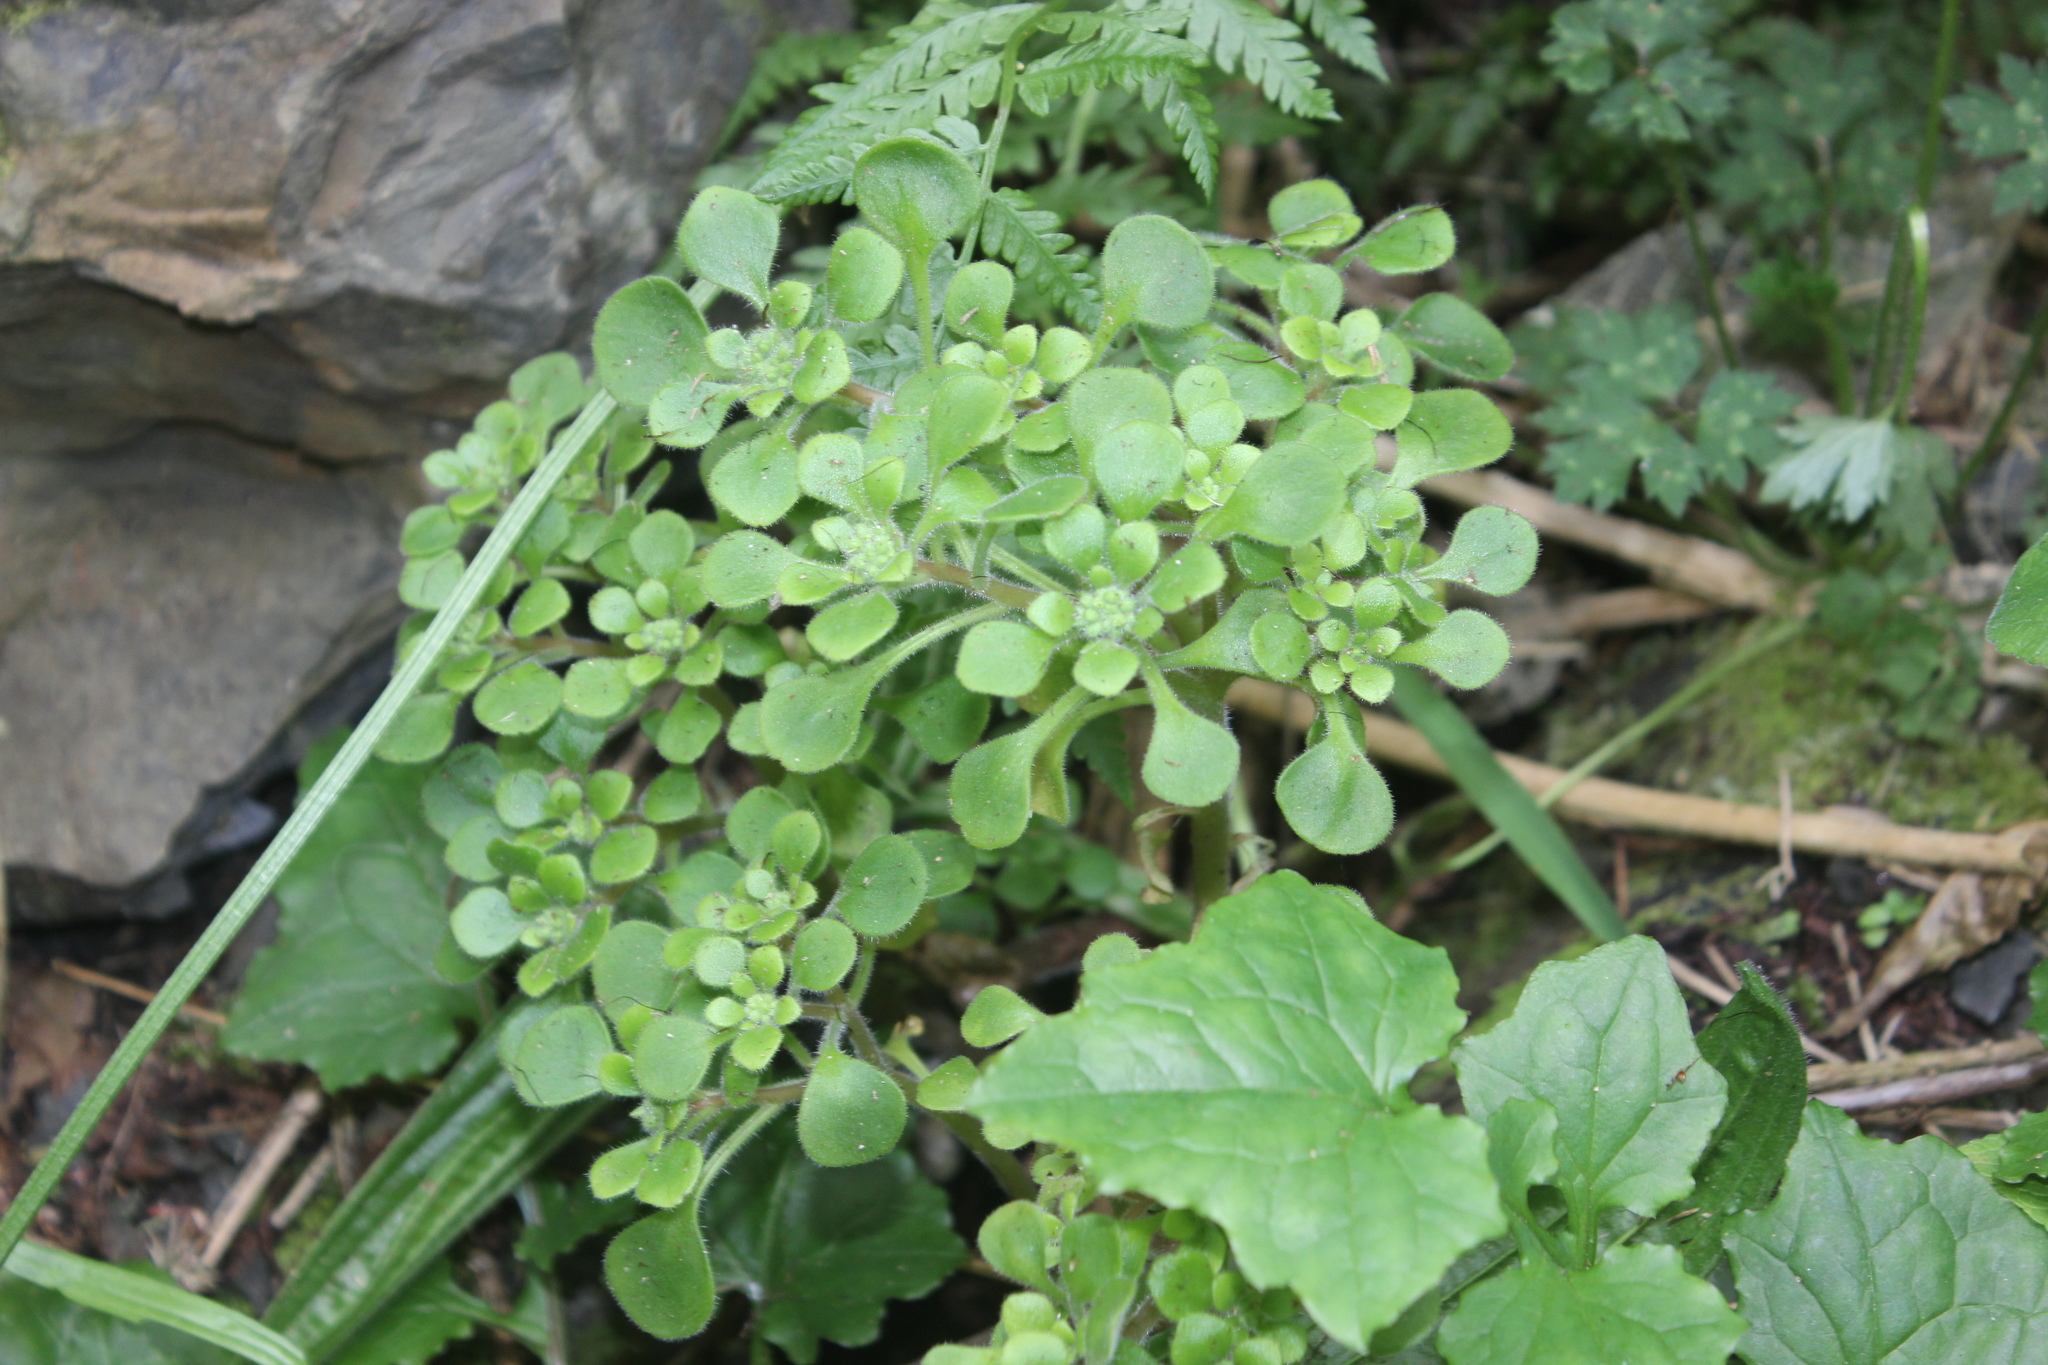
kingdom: Plantae
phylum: Tracheophyta
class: Magnoliopsida
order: Saxifragales
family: Crassulaceae
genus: Aichryson
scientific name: Aichryson laxum
